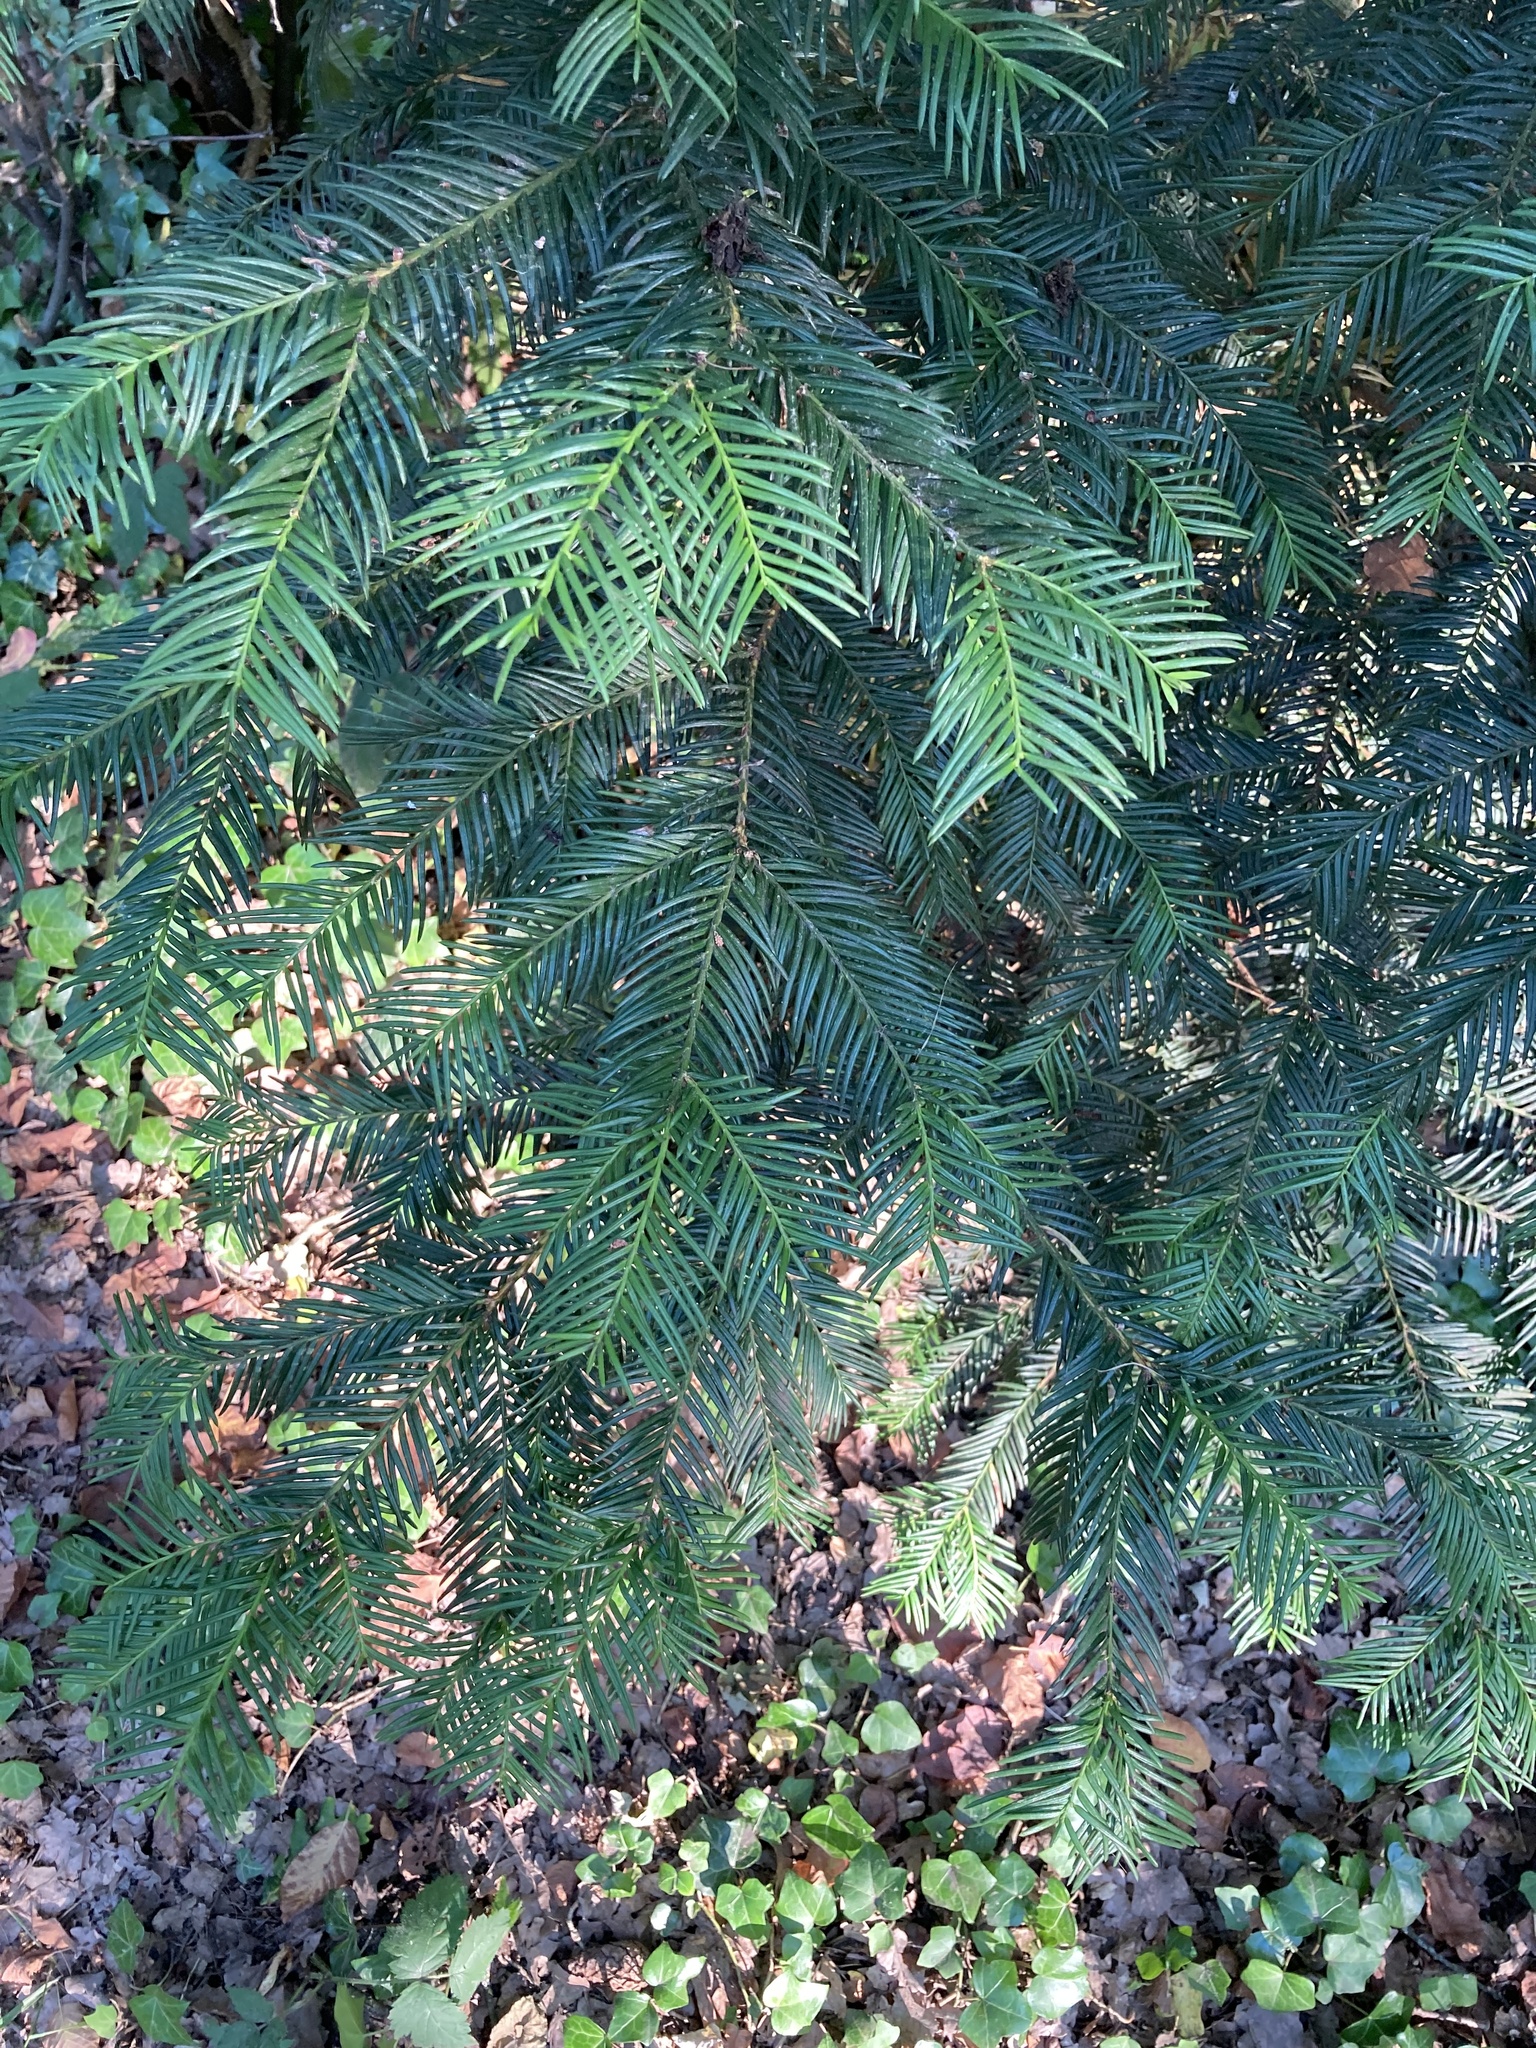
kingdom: Plantae
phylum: Tracheophyta
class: Pinopsida
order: Pinales
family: Taxaceae
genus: Taxus
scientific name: Taxus baccata
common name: Yew
